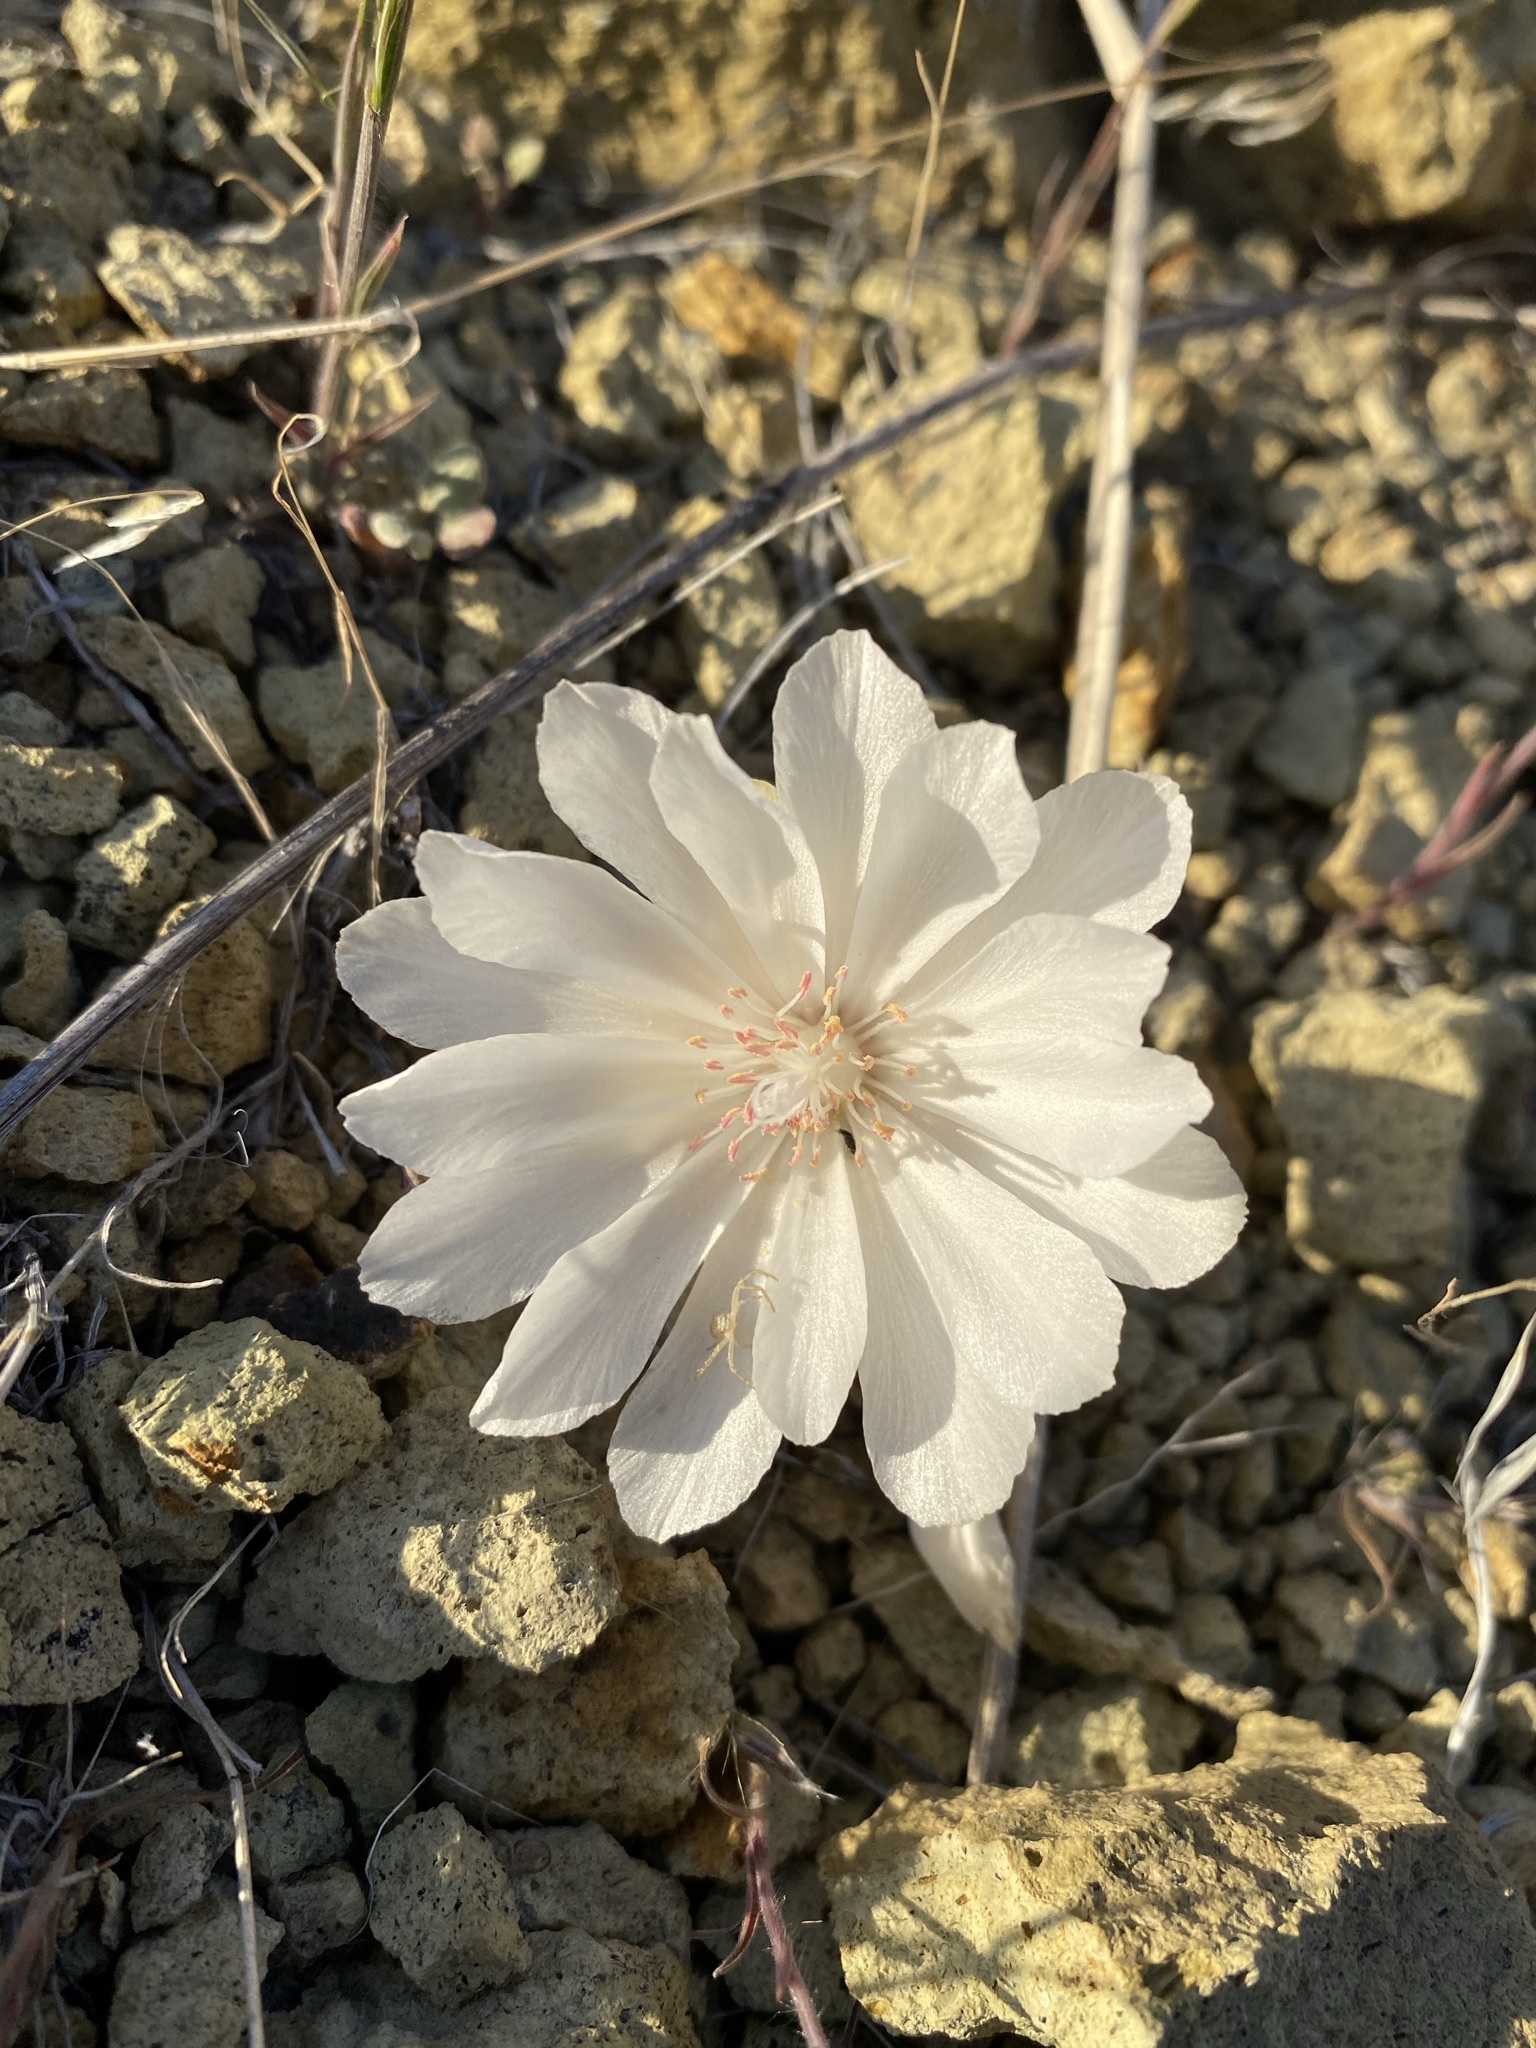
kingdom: Plantae
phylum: Tracheophyta
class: Magnoliopsida
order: Caryophyllales
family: Montiaceae
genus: Lewisia
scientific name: Lewisia rediviva
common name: Bitter-root
